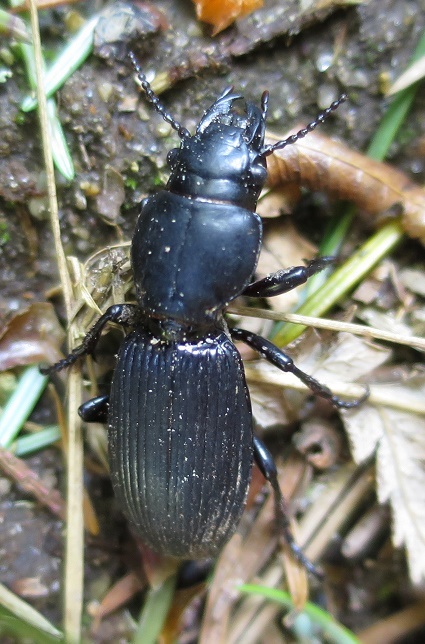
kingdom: Animalia
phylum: Arthropoda
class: Insecta
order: Coleoptera
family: Carabidae
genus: Mecodema
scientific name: Mecodema curvidens
